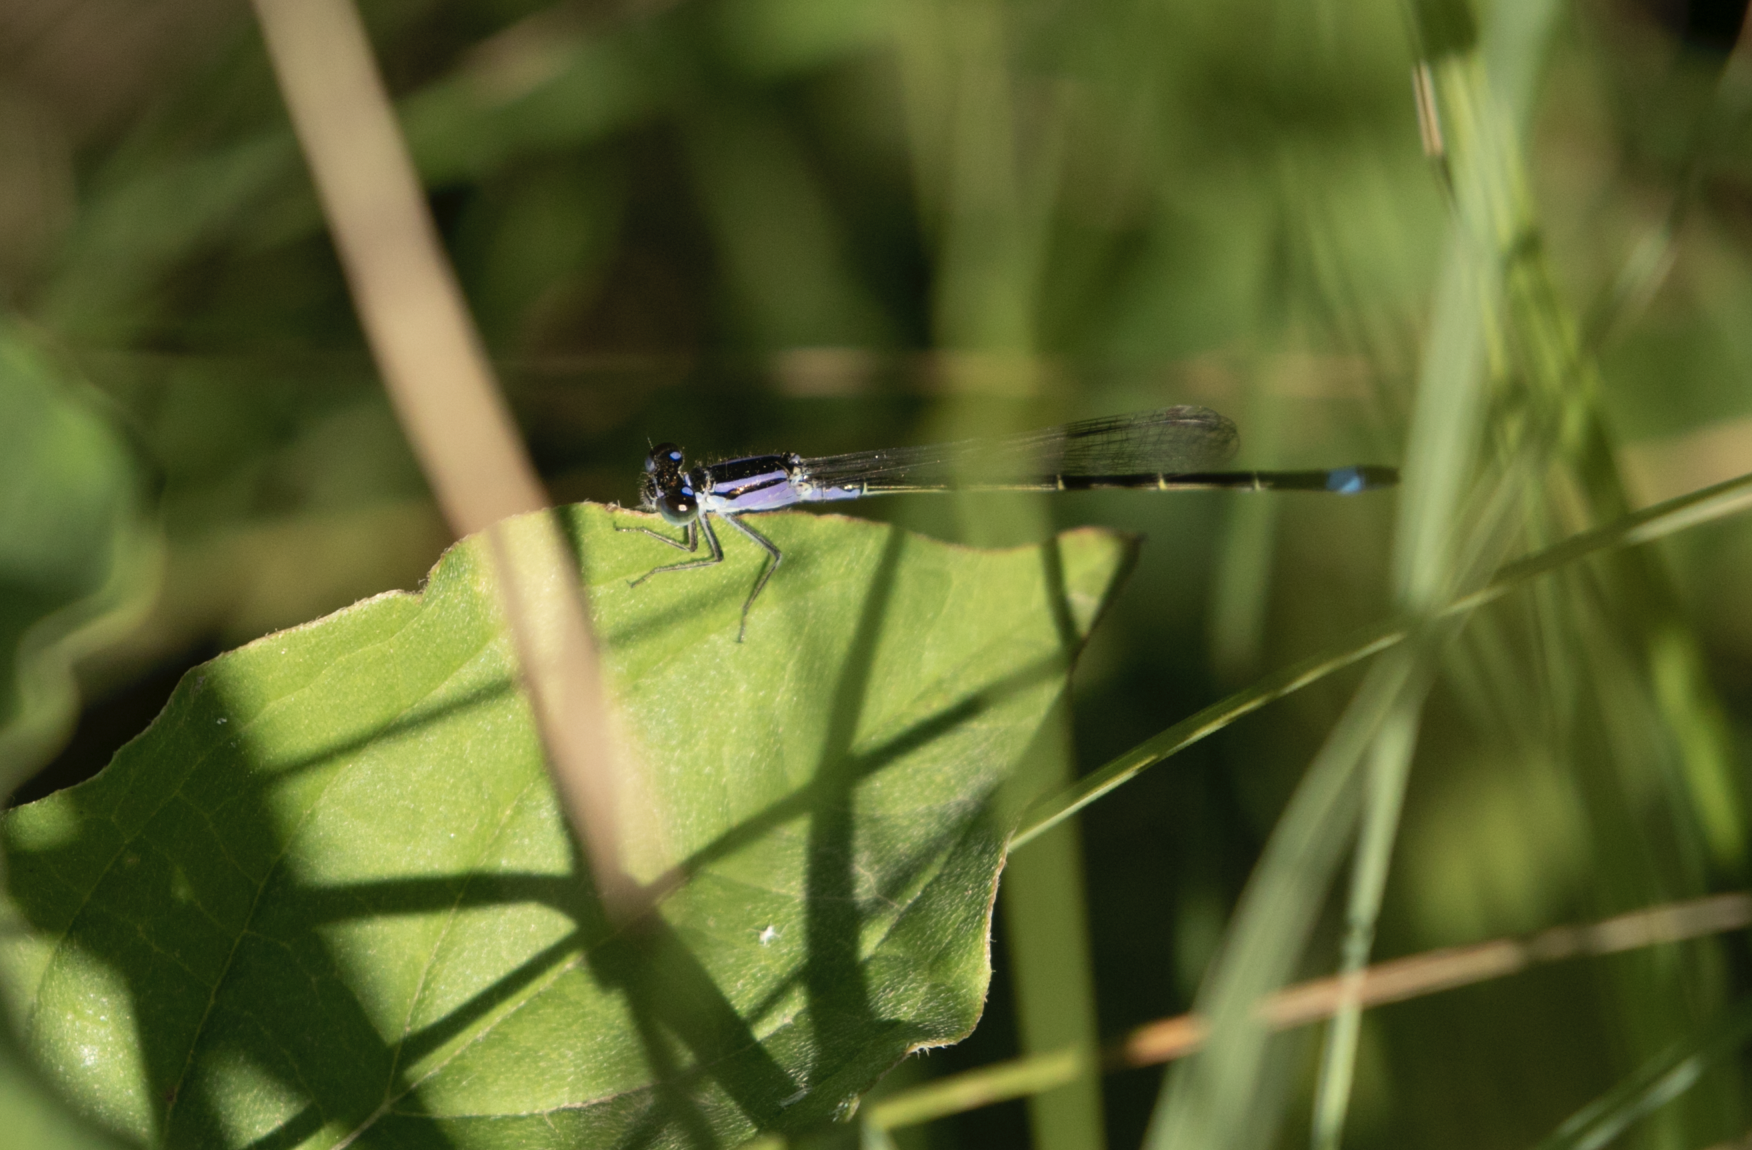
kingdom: Animalia
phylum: Arthropoda
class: Insecta
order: Odonata
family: Coenagrionidae
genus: Ischnura
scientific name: Ischnura elegans
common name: Blue-tailed damselfly
